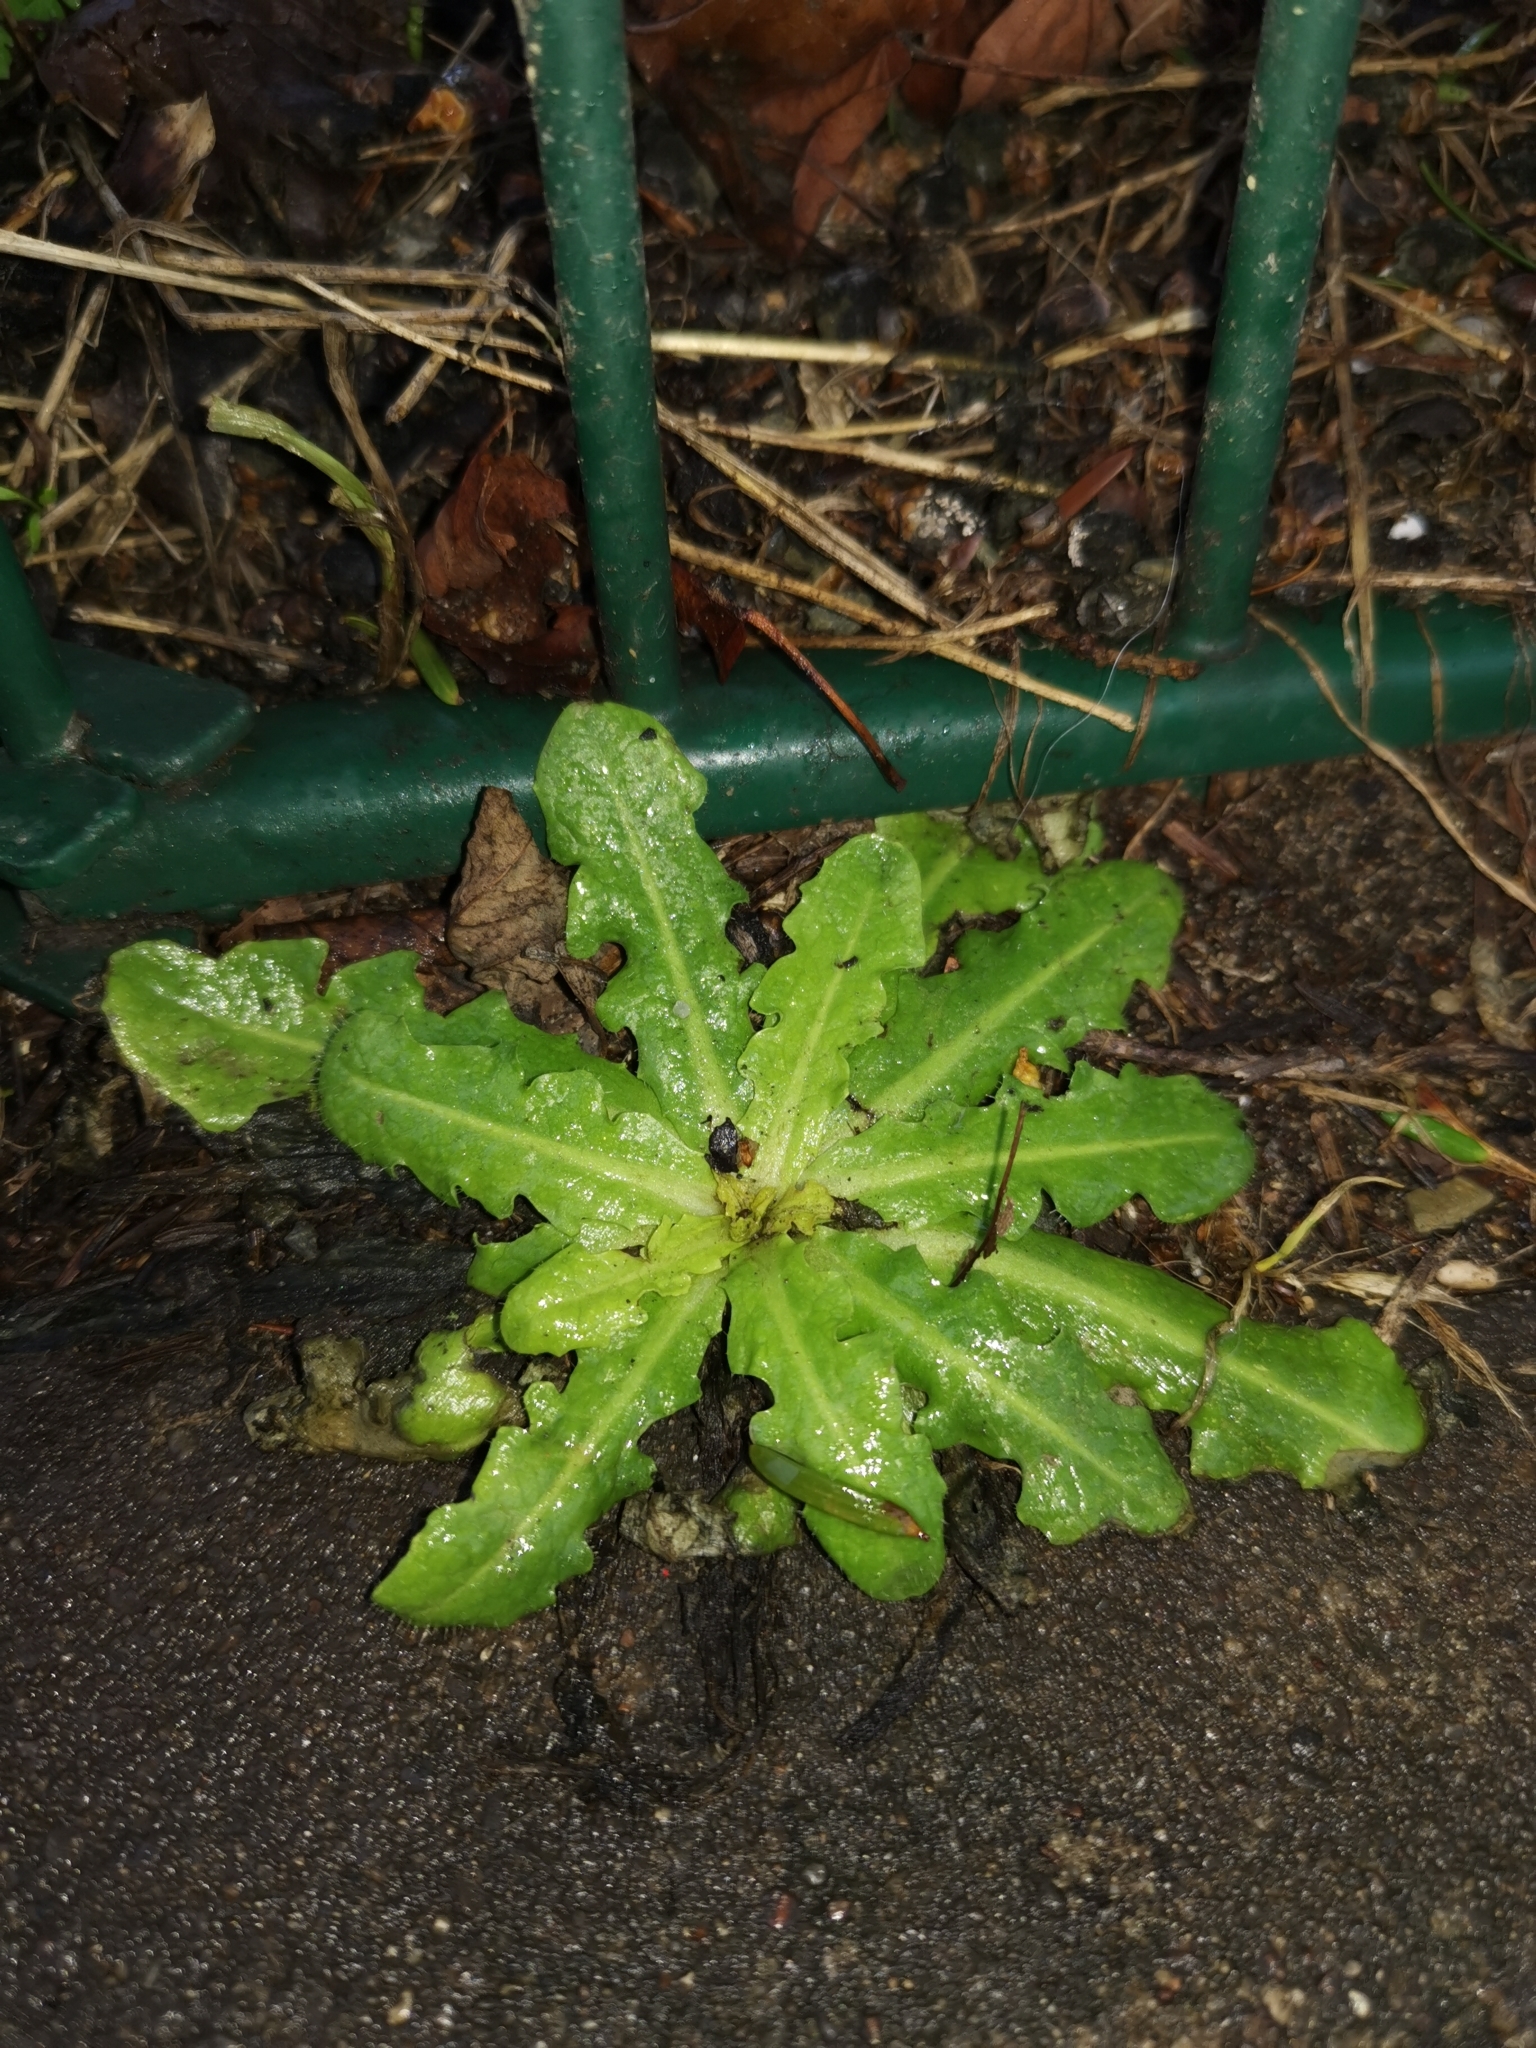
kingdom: Plantae
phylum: Tracheophyta
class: Magnoliopsida
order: Asterales
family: Asteraceae
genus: Hypochaeris
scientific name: Hypochaeris radicata
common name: Flatweed
